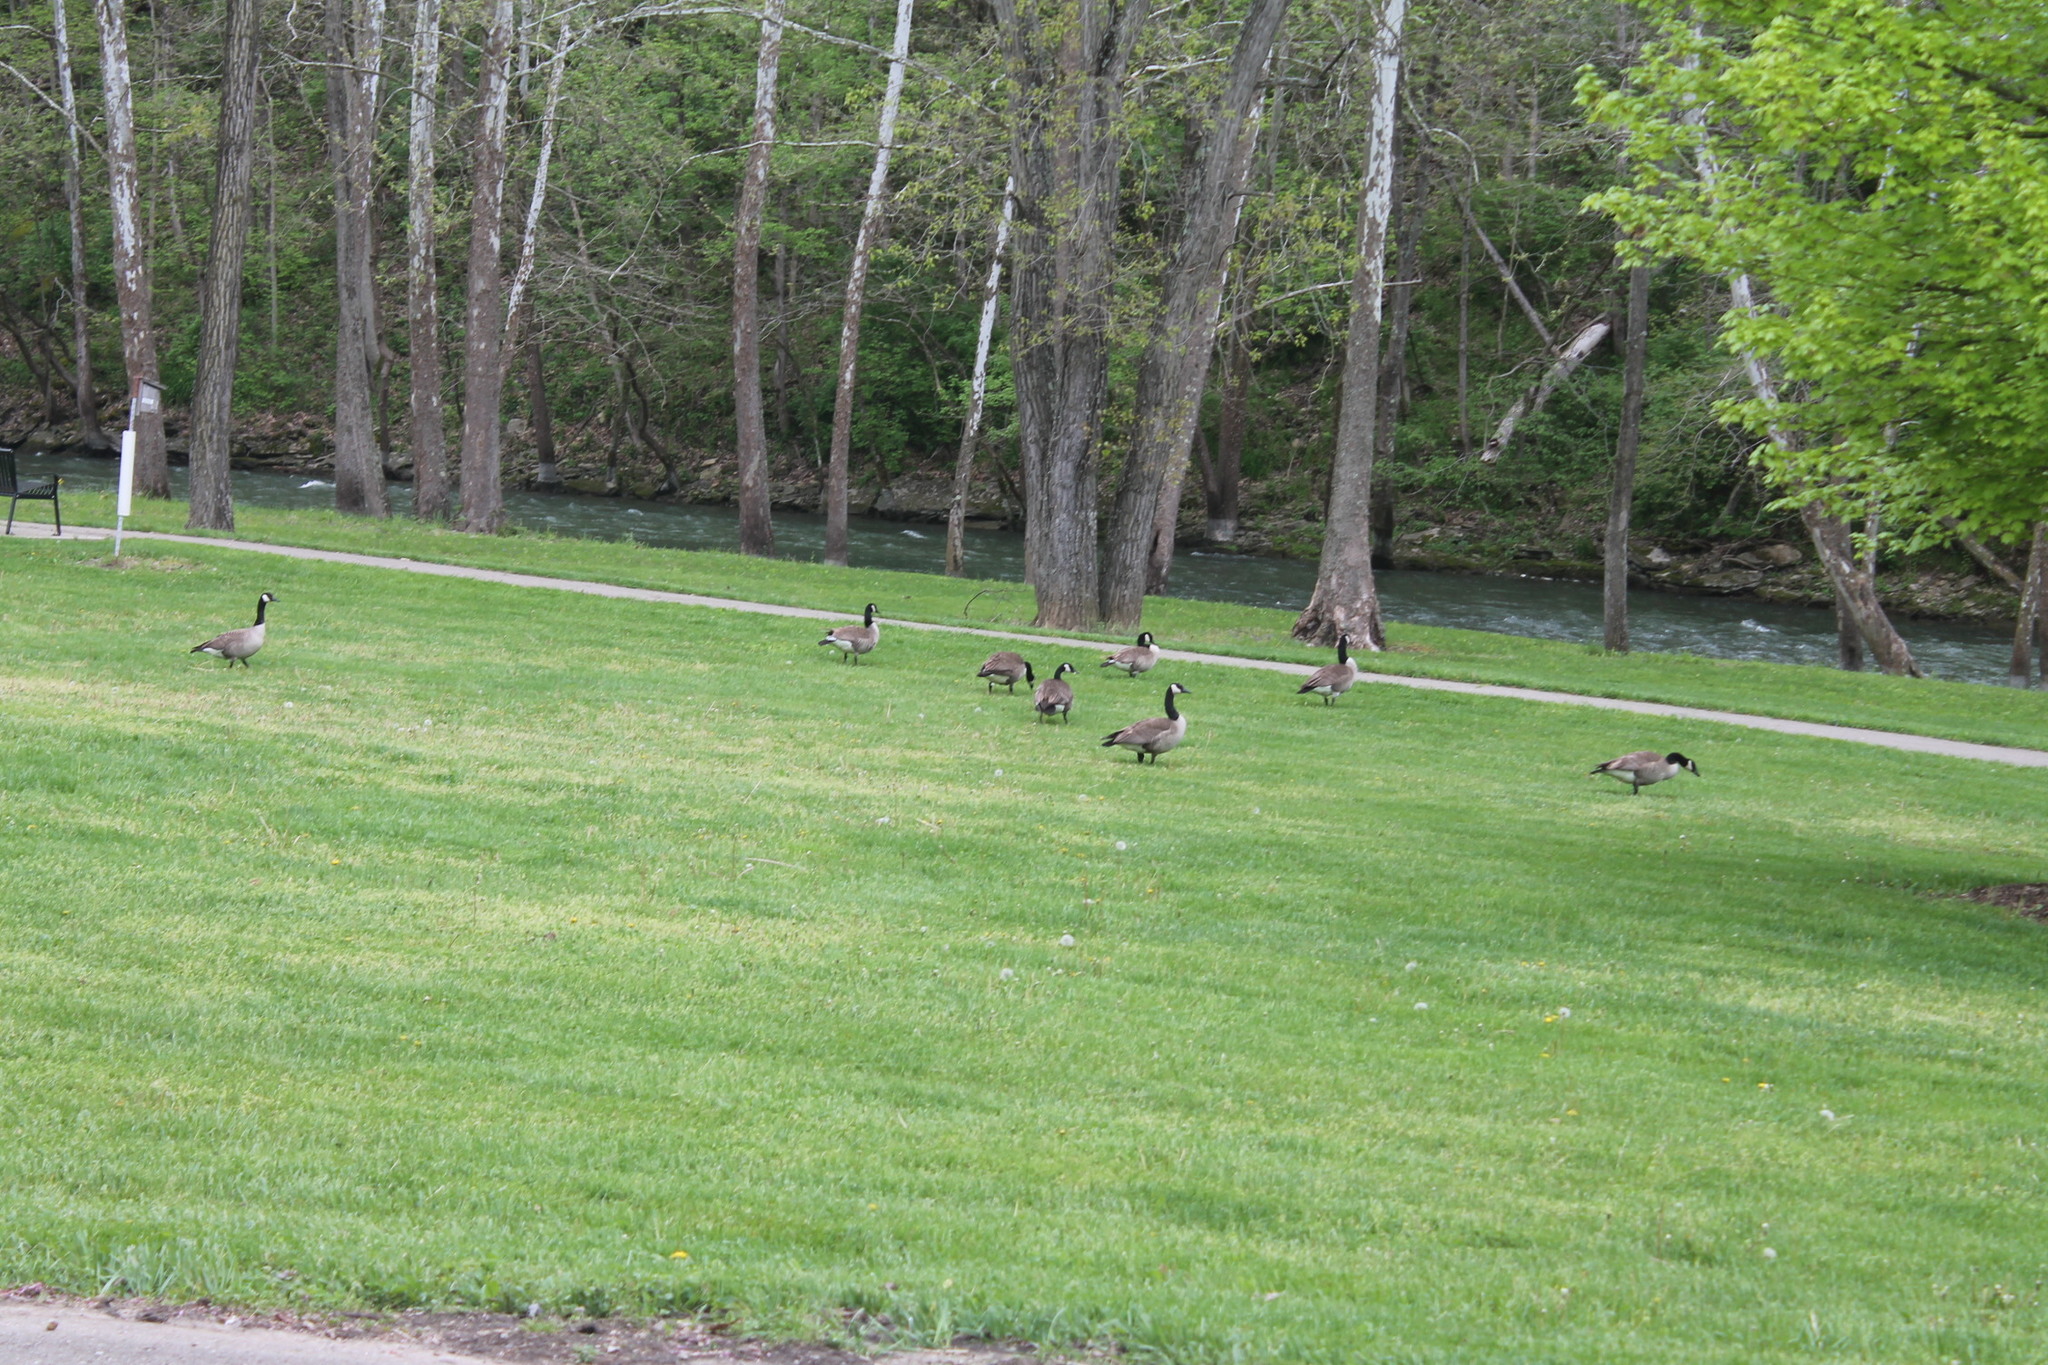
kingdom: Animalia
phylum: Chordata
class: Aves
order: Anseriformes
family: Anatidae
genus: Branta
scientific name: Branta canadensis
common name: Canada goose
